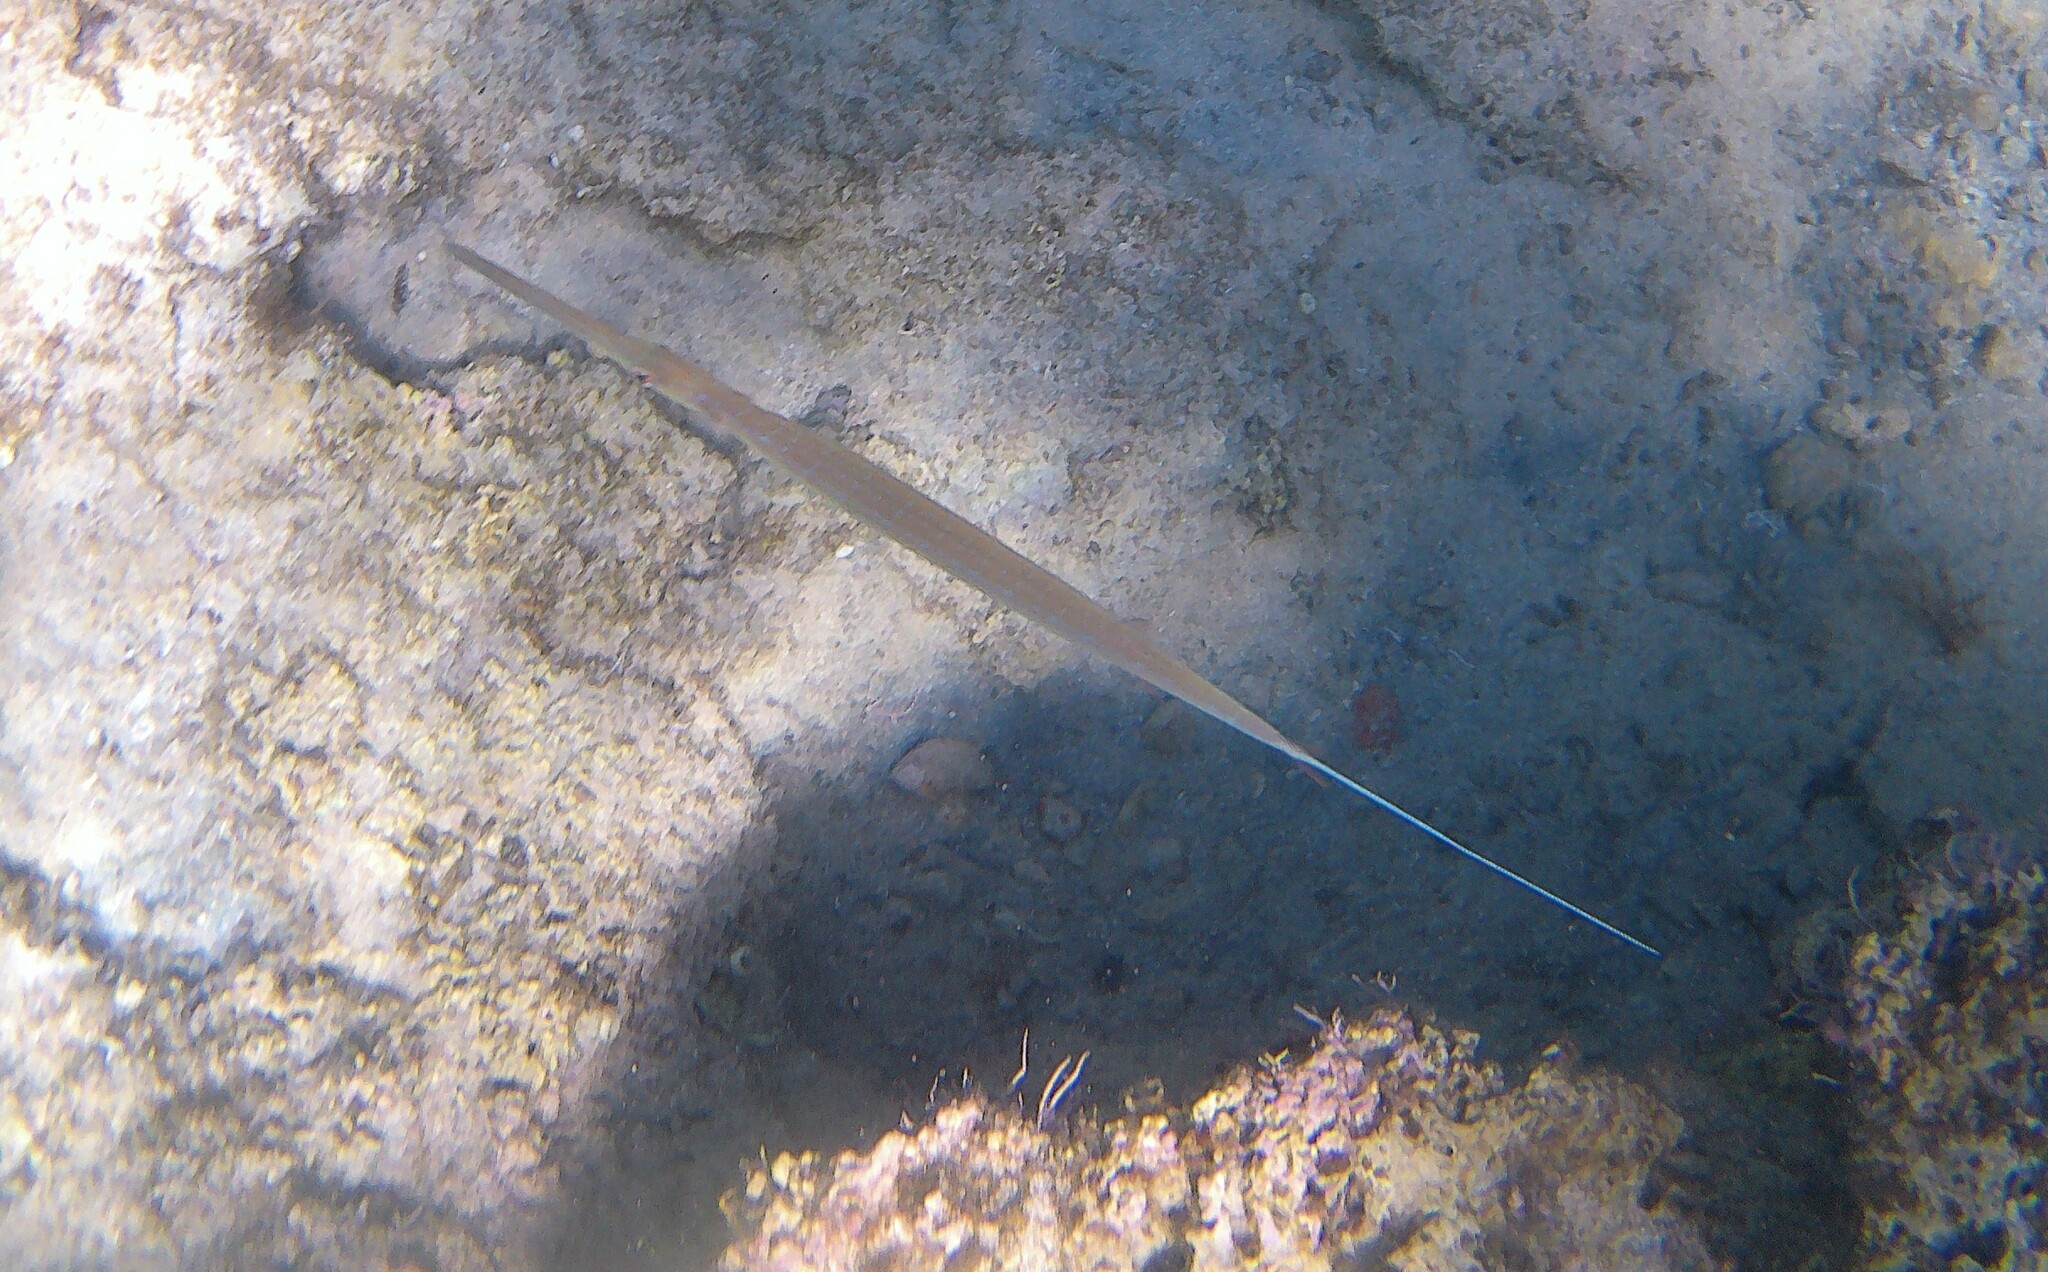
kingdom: Animalia
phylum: Chordata
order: Syngnathiformes
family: Fistulariidae
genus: Fistularia
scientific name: Fistularia commersonii
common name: Bluespotted cornetfish
